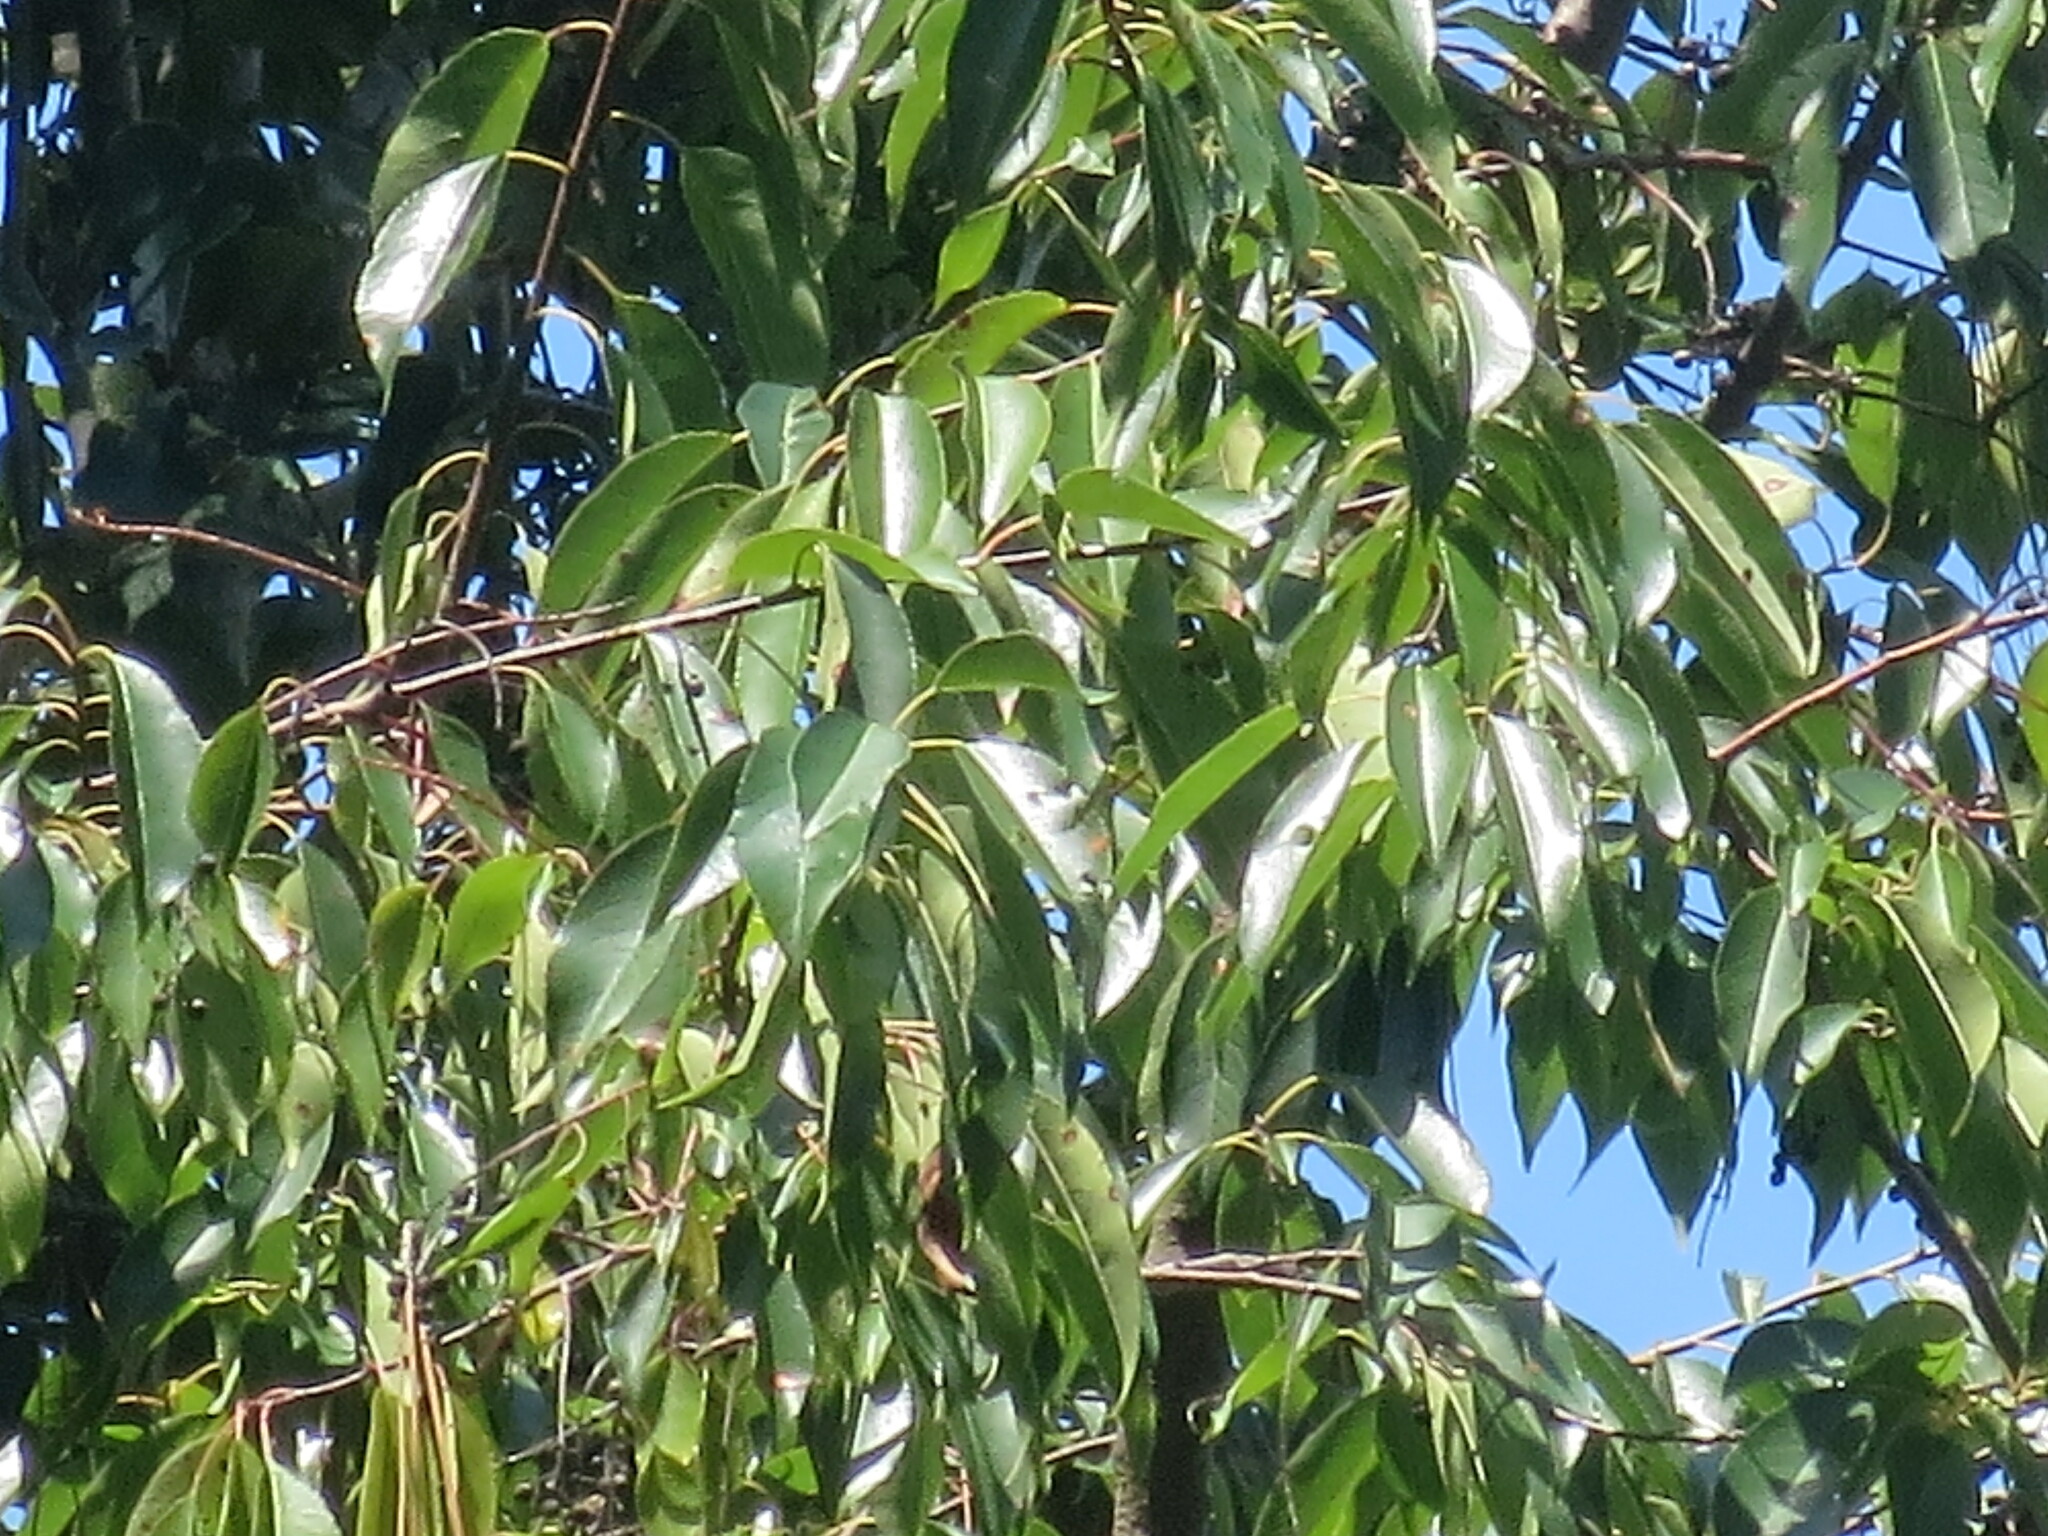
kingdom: Plantae
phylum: Tracheophyta
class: Magnoliopsida
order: Rosales
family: Rosaceae
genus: Prunus
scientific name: Prunus serotina
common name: Black cherry
